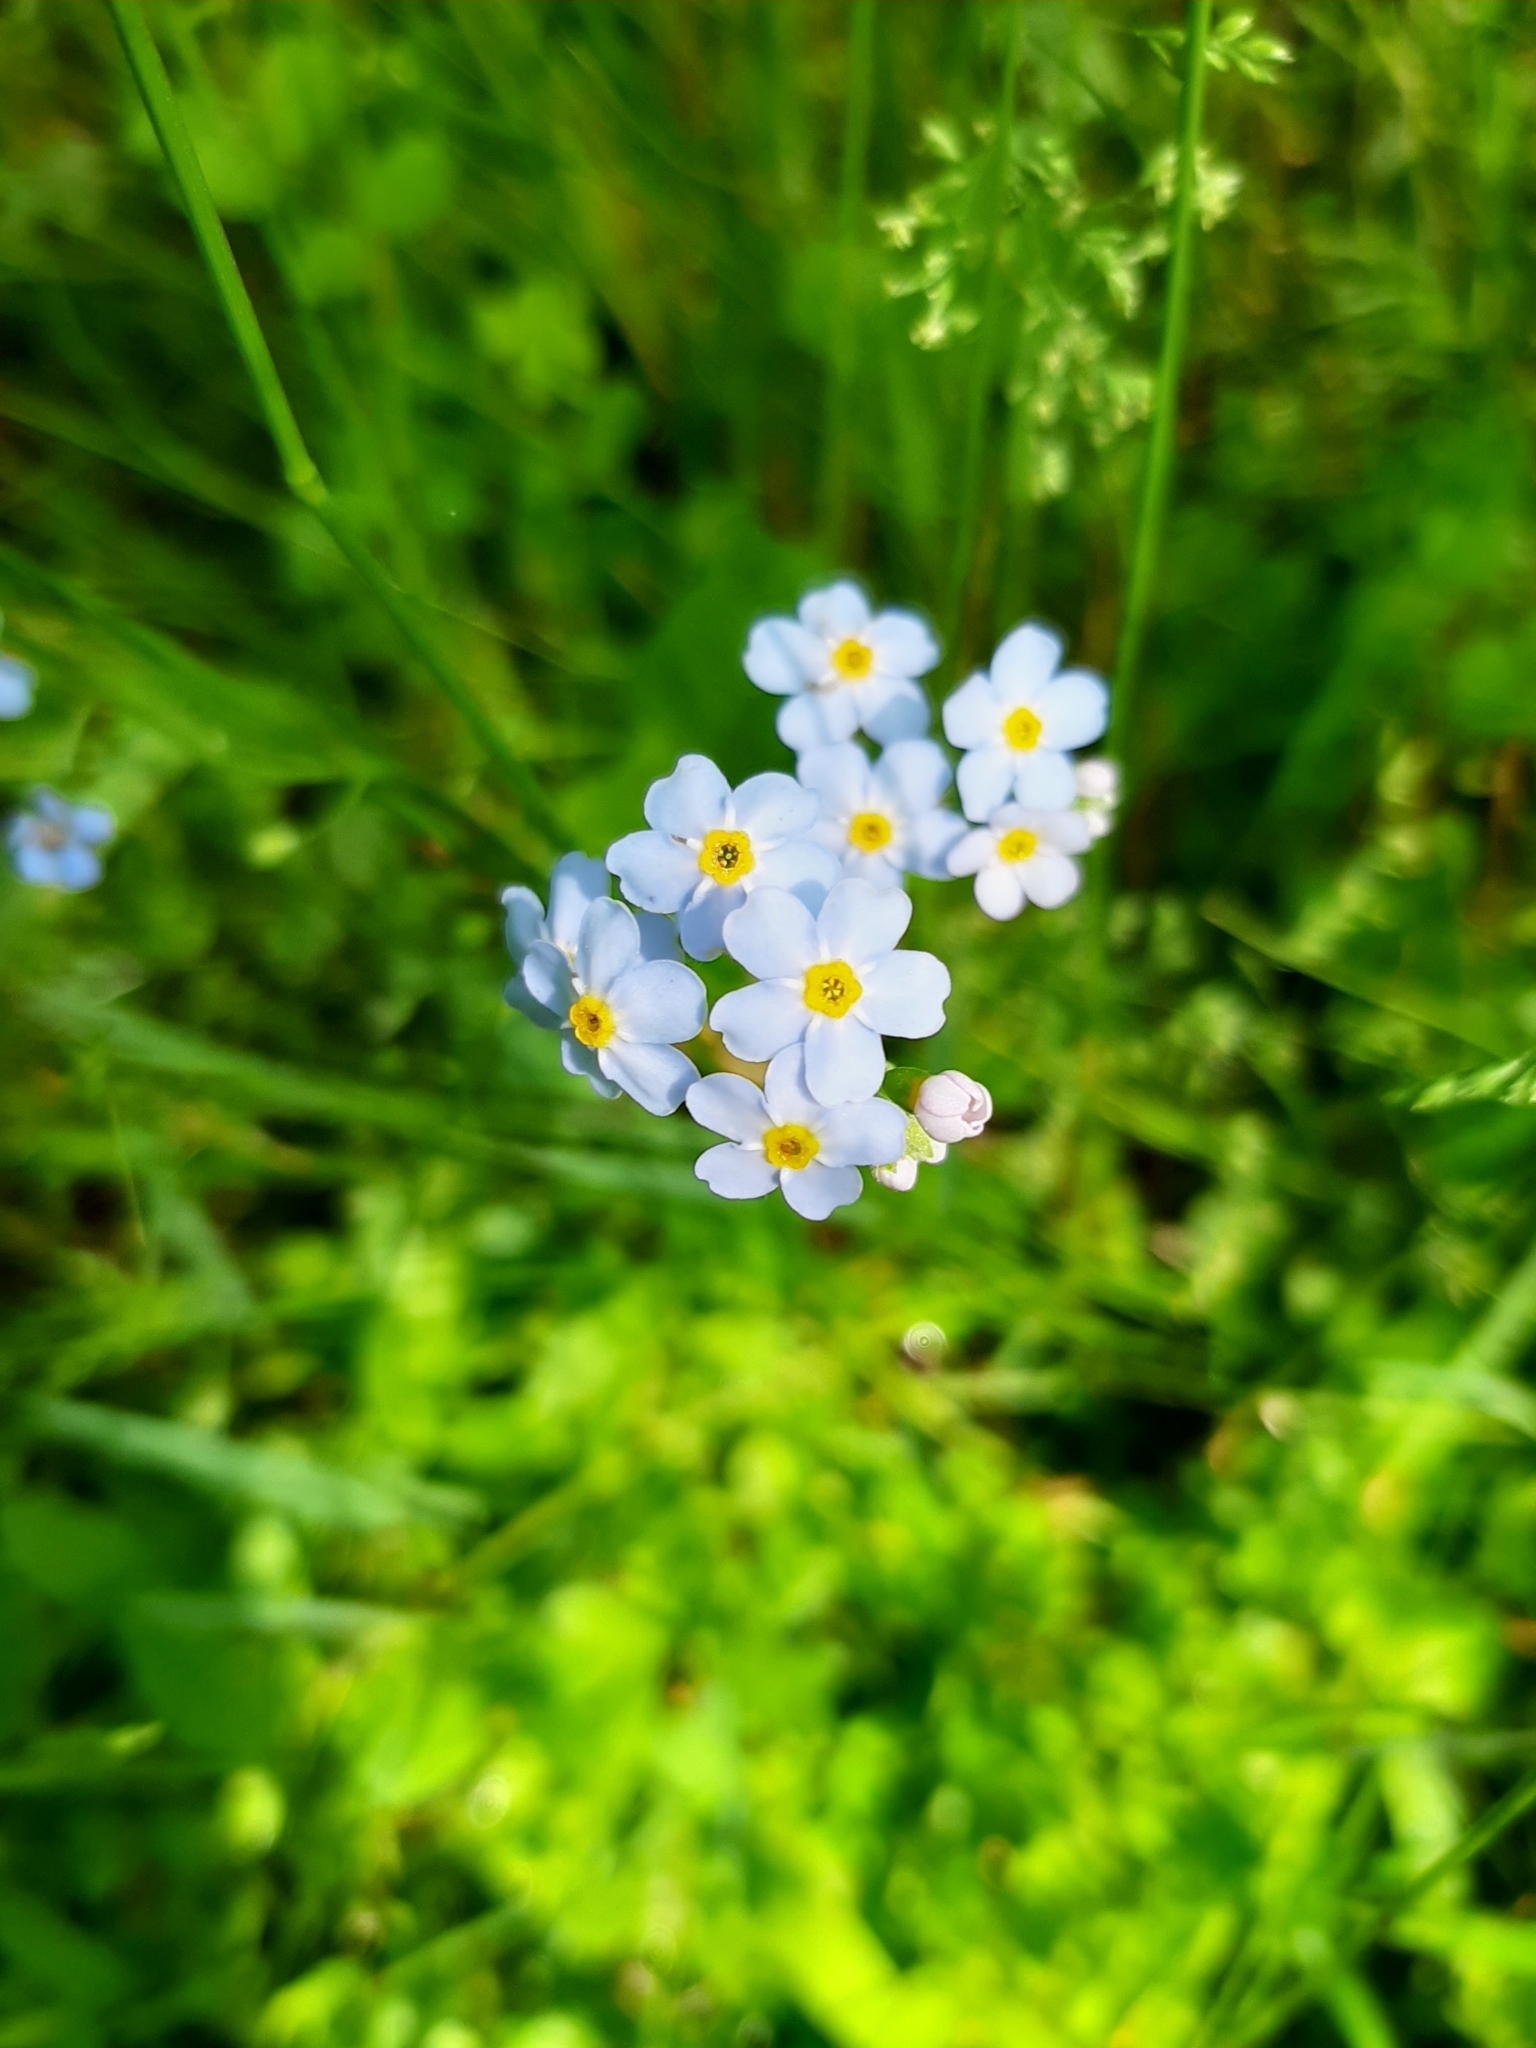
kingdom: Plantae
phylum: Tracheophyta
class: Magnoliopsida
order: Boraginales
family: Boraginaceae
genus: Myosotis
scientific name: Myosotis scorpioides
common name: Water forget-me-not
